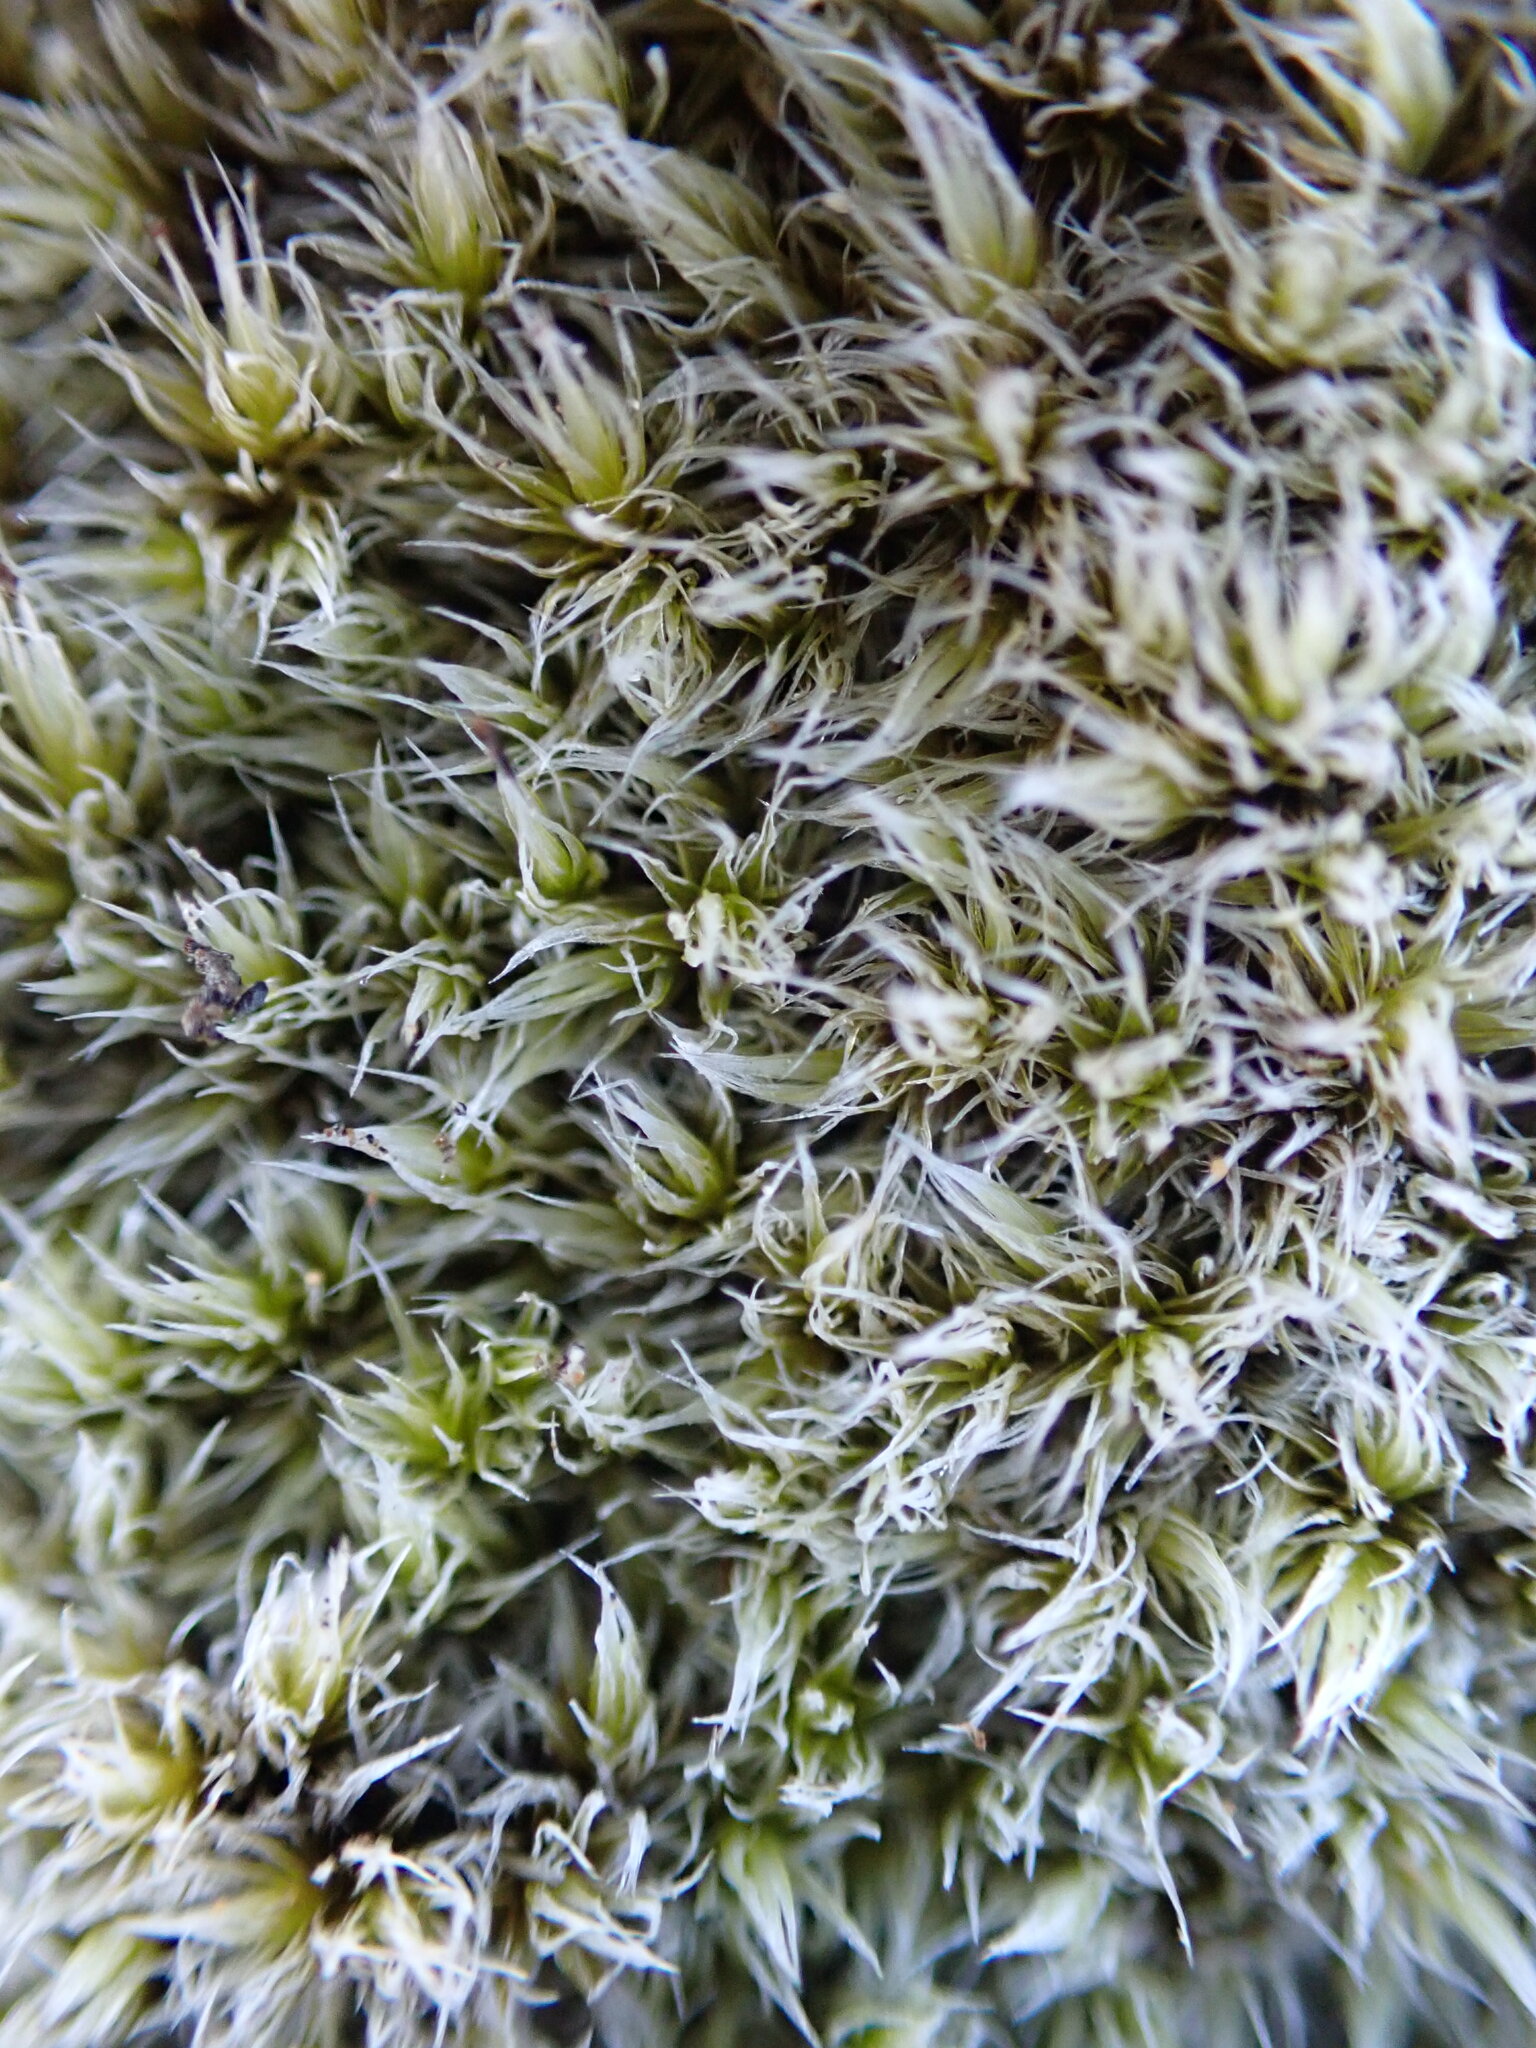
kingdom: Plantae
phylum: Bryophyta
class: Bryopsida
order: Grimmiales
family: Grimmiaceae
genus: Racomitrium
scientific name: Racomitrium lanuginosum
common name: Hoary rock moss
